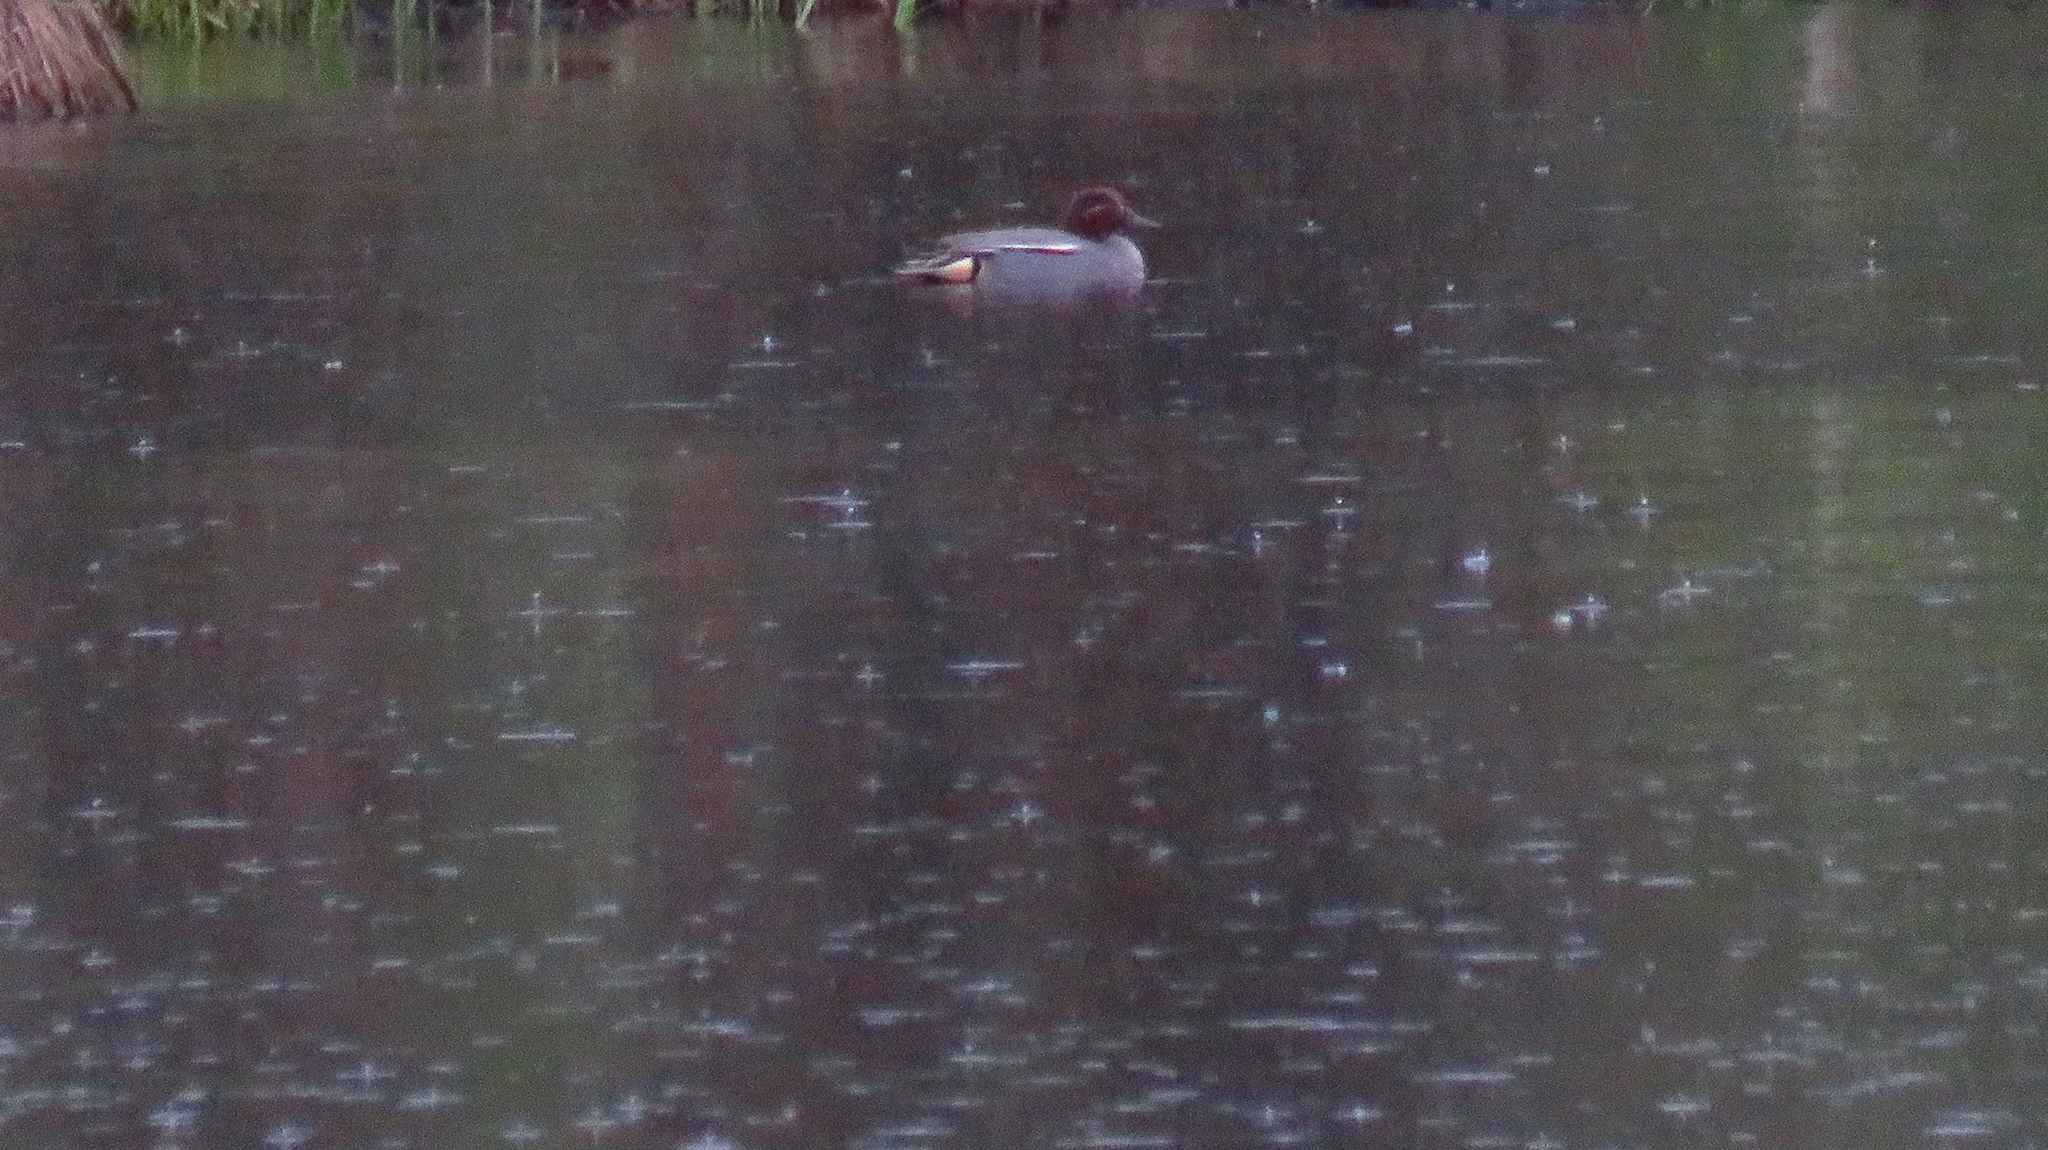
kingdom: Animalia
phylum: Chordata
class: Aves
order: Anseriformes
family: Anatidae
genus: Anas
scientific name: Anas crecca
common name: Eurasian teal
